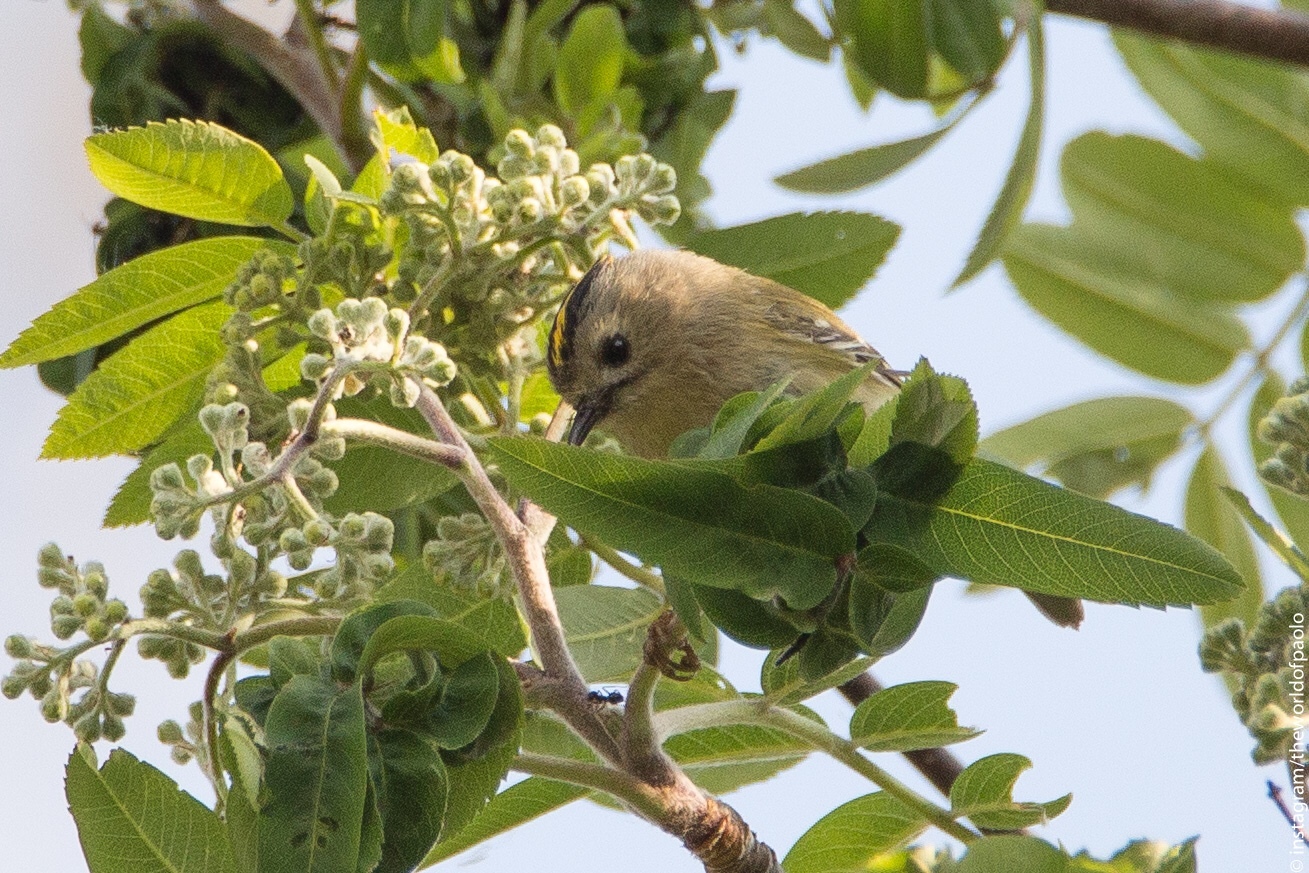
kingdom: Animalia
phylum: Chordata
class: Aves
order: Passeriformes
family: Regulidae
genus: Regulus
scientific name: Regulus regulus
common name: Goldcrest
